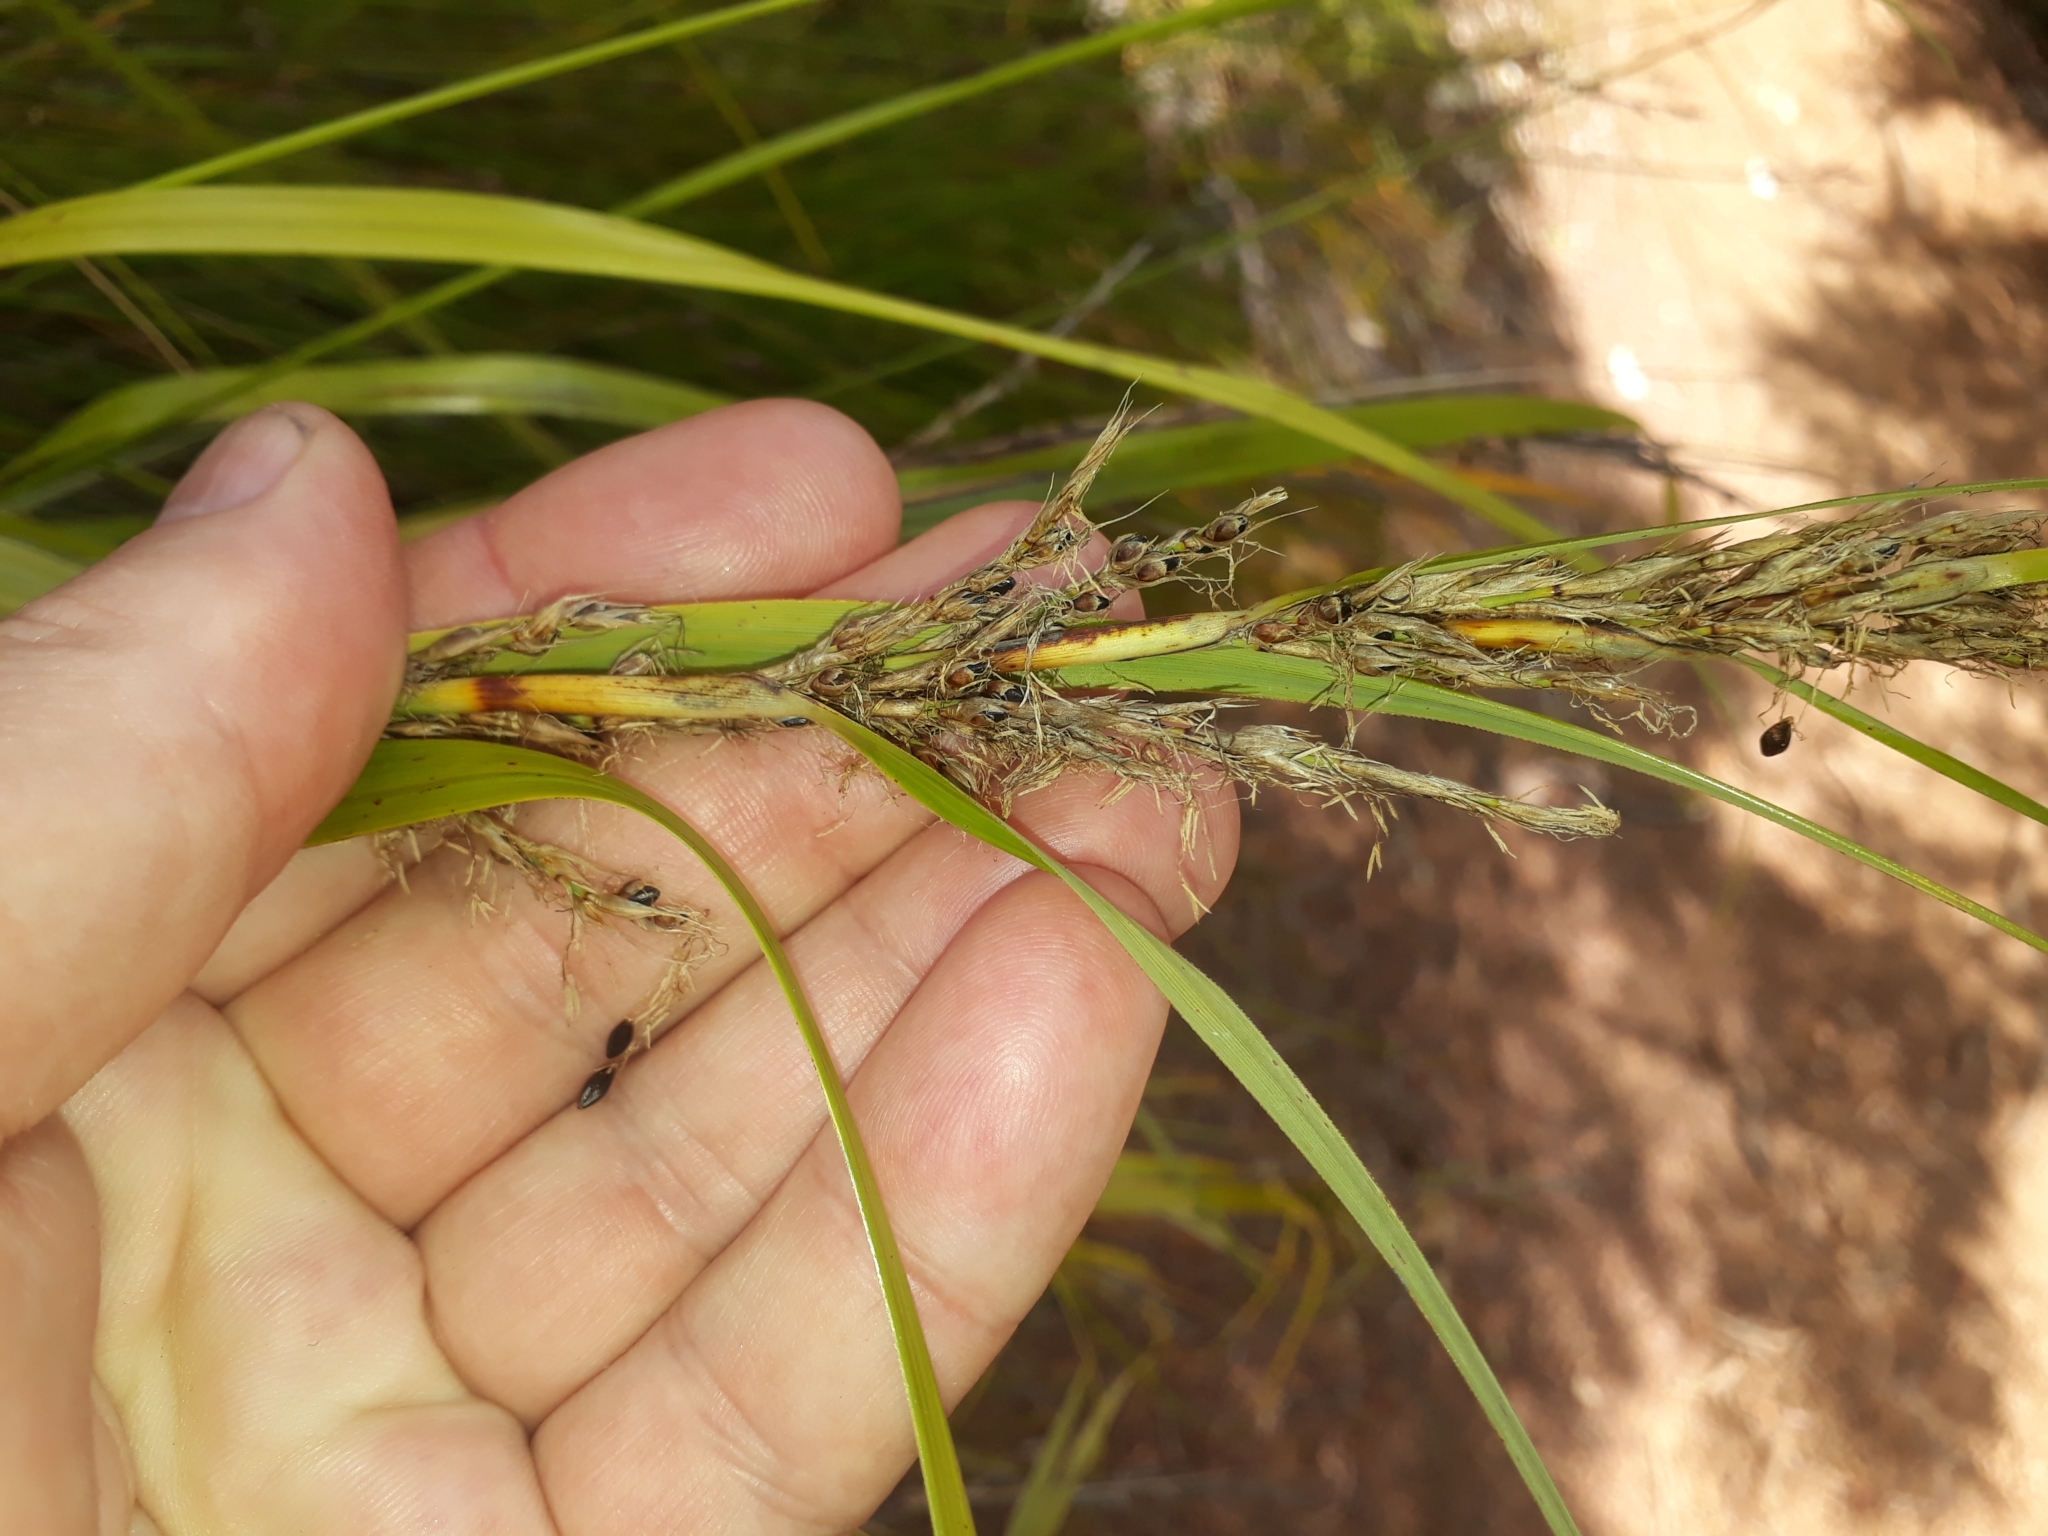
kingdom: Plantae
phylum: Tracheophyta
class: Liliopsida
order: Poales
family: Cyperaceae
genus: Gahnia
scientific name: Gahnia lacera
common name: Sawsedge
